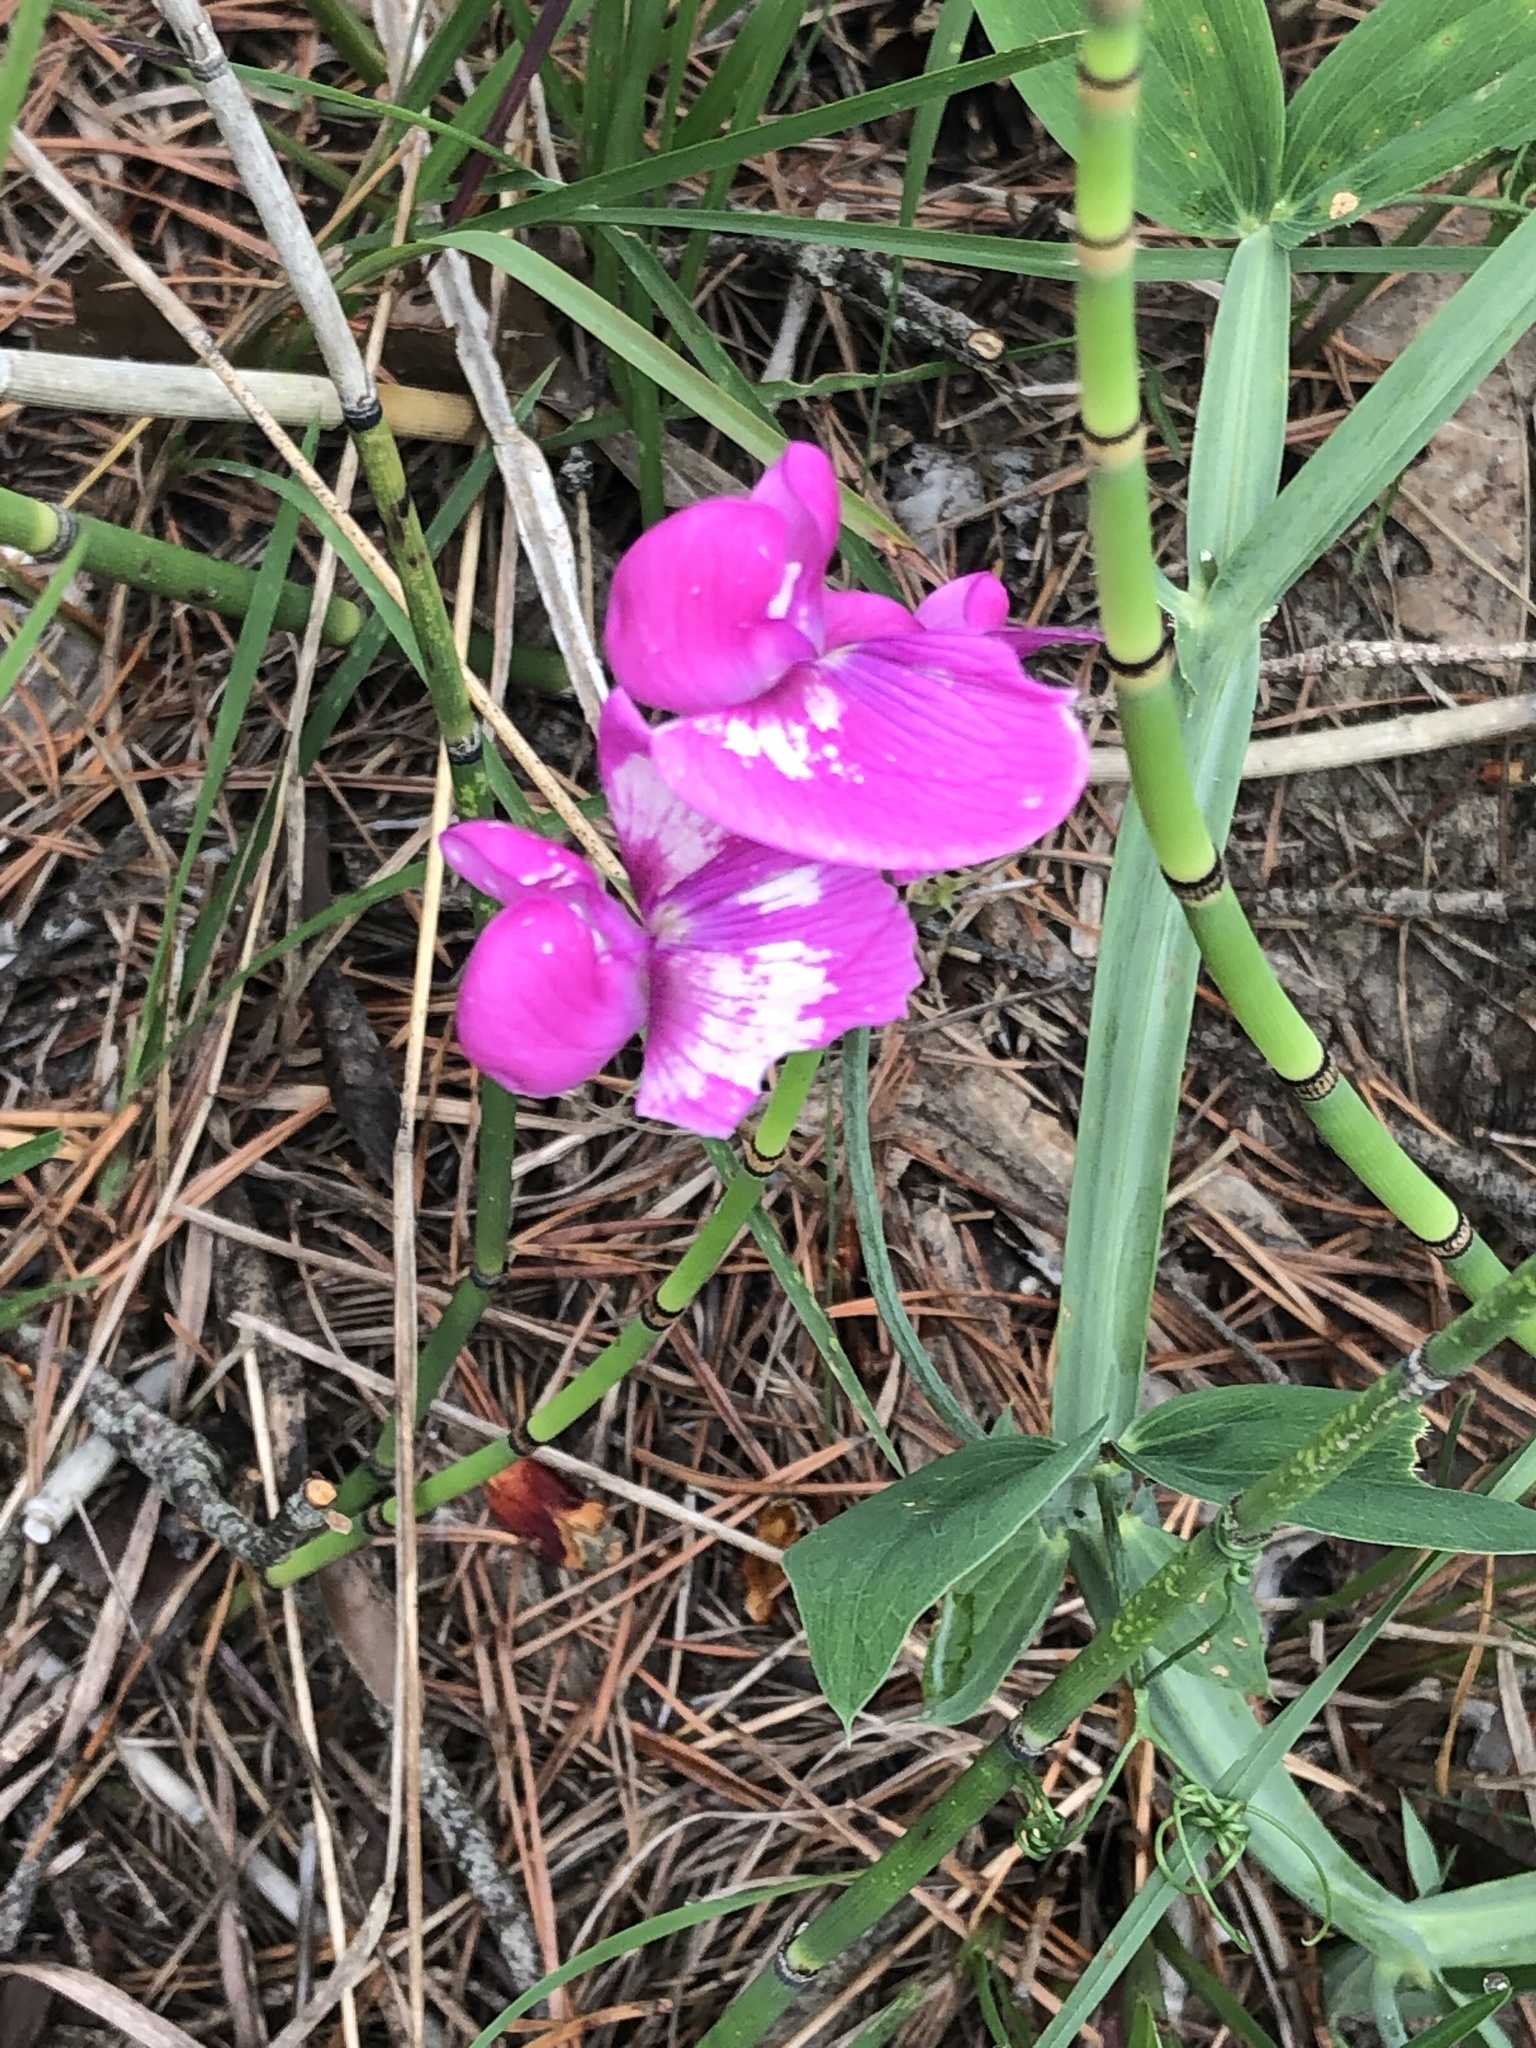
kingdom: Plantae
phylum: Tracheophyta
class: Magnoliopsida
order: Fabales
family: Fabaceae
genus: Lathyrus
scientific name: Lathyrus latifolius
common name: Perennial pea
